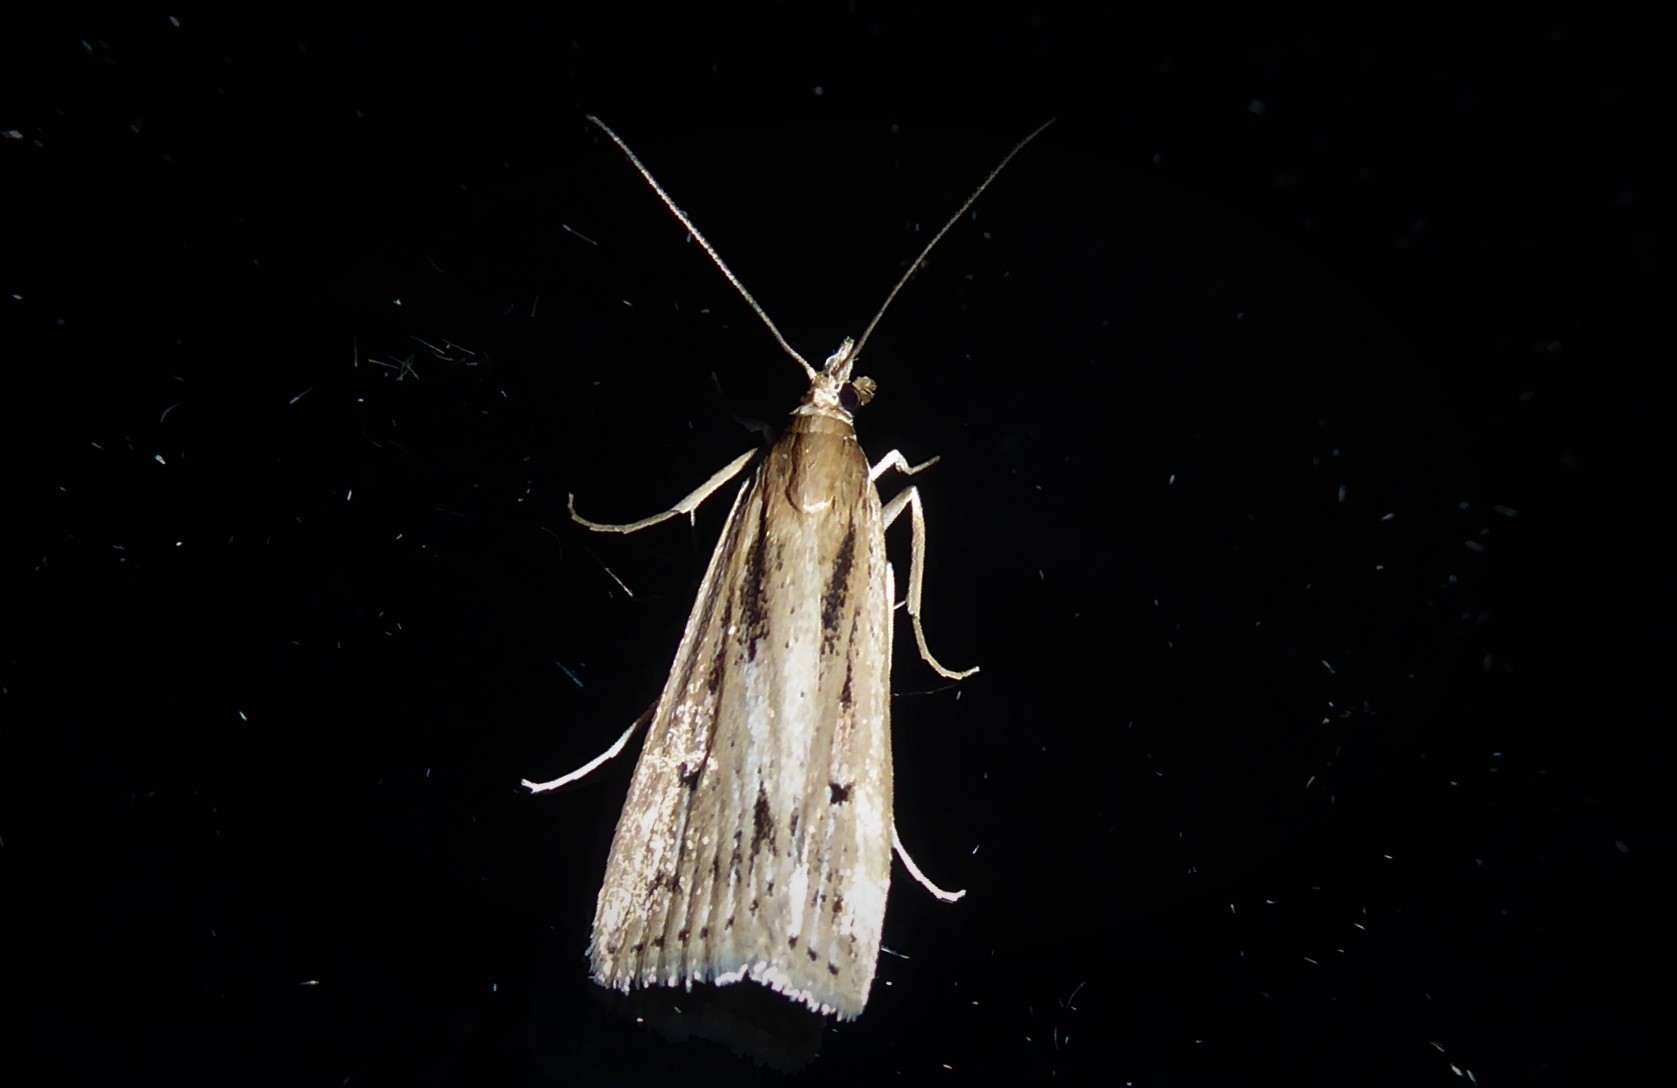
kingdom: Animalia
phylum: Arthropoda
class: Insecta
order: Lepidoptera
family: Crambidae
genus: Eudonia
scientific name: Eudonia sabulosella
